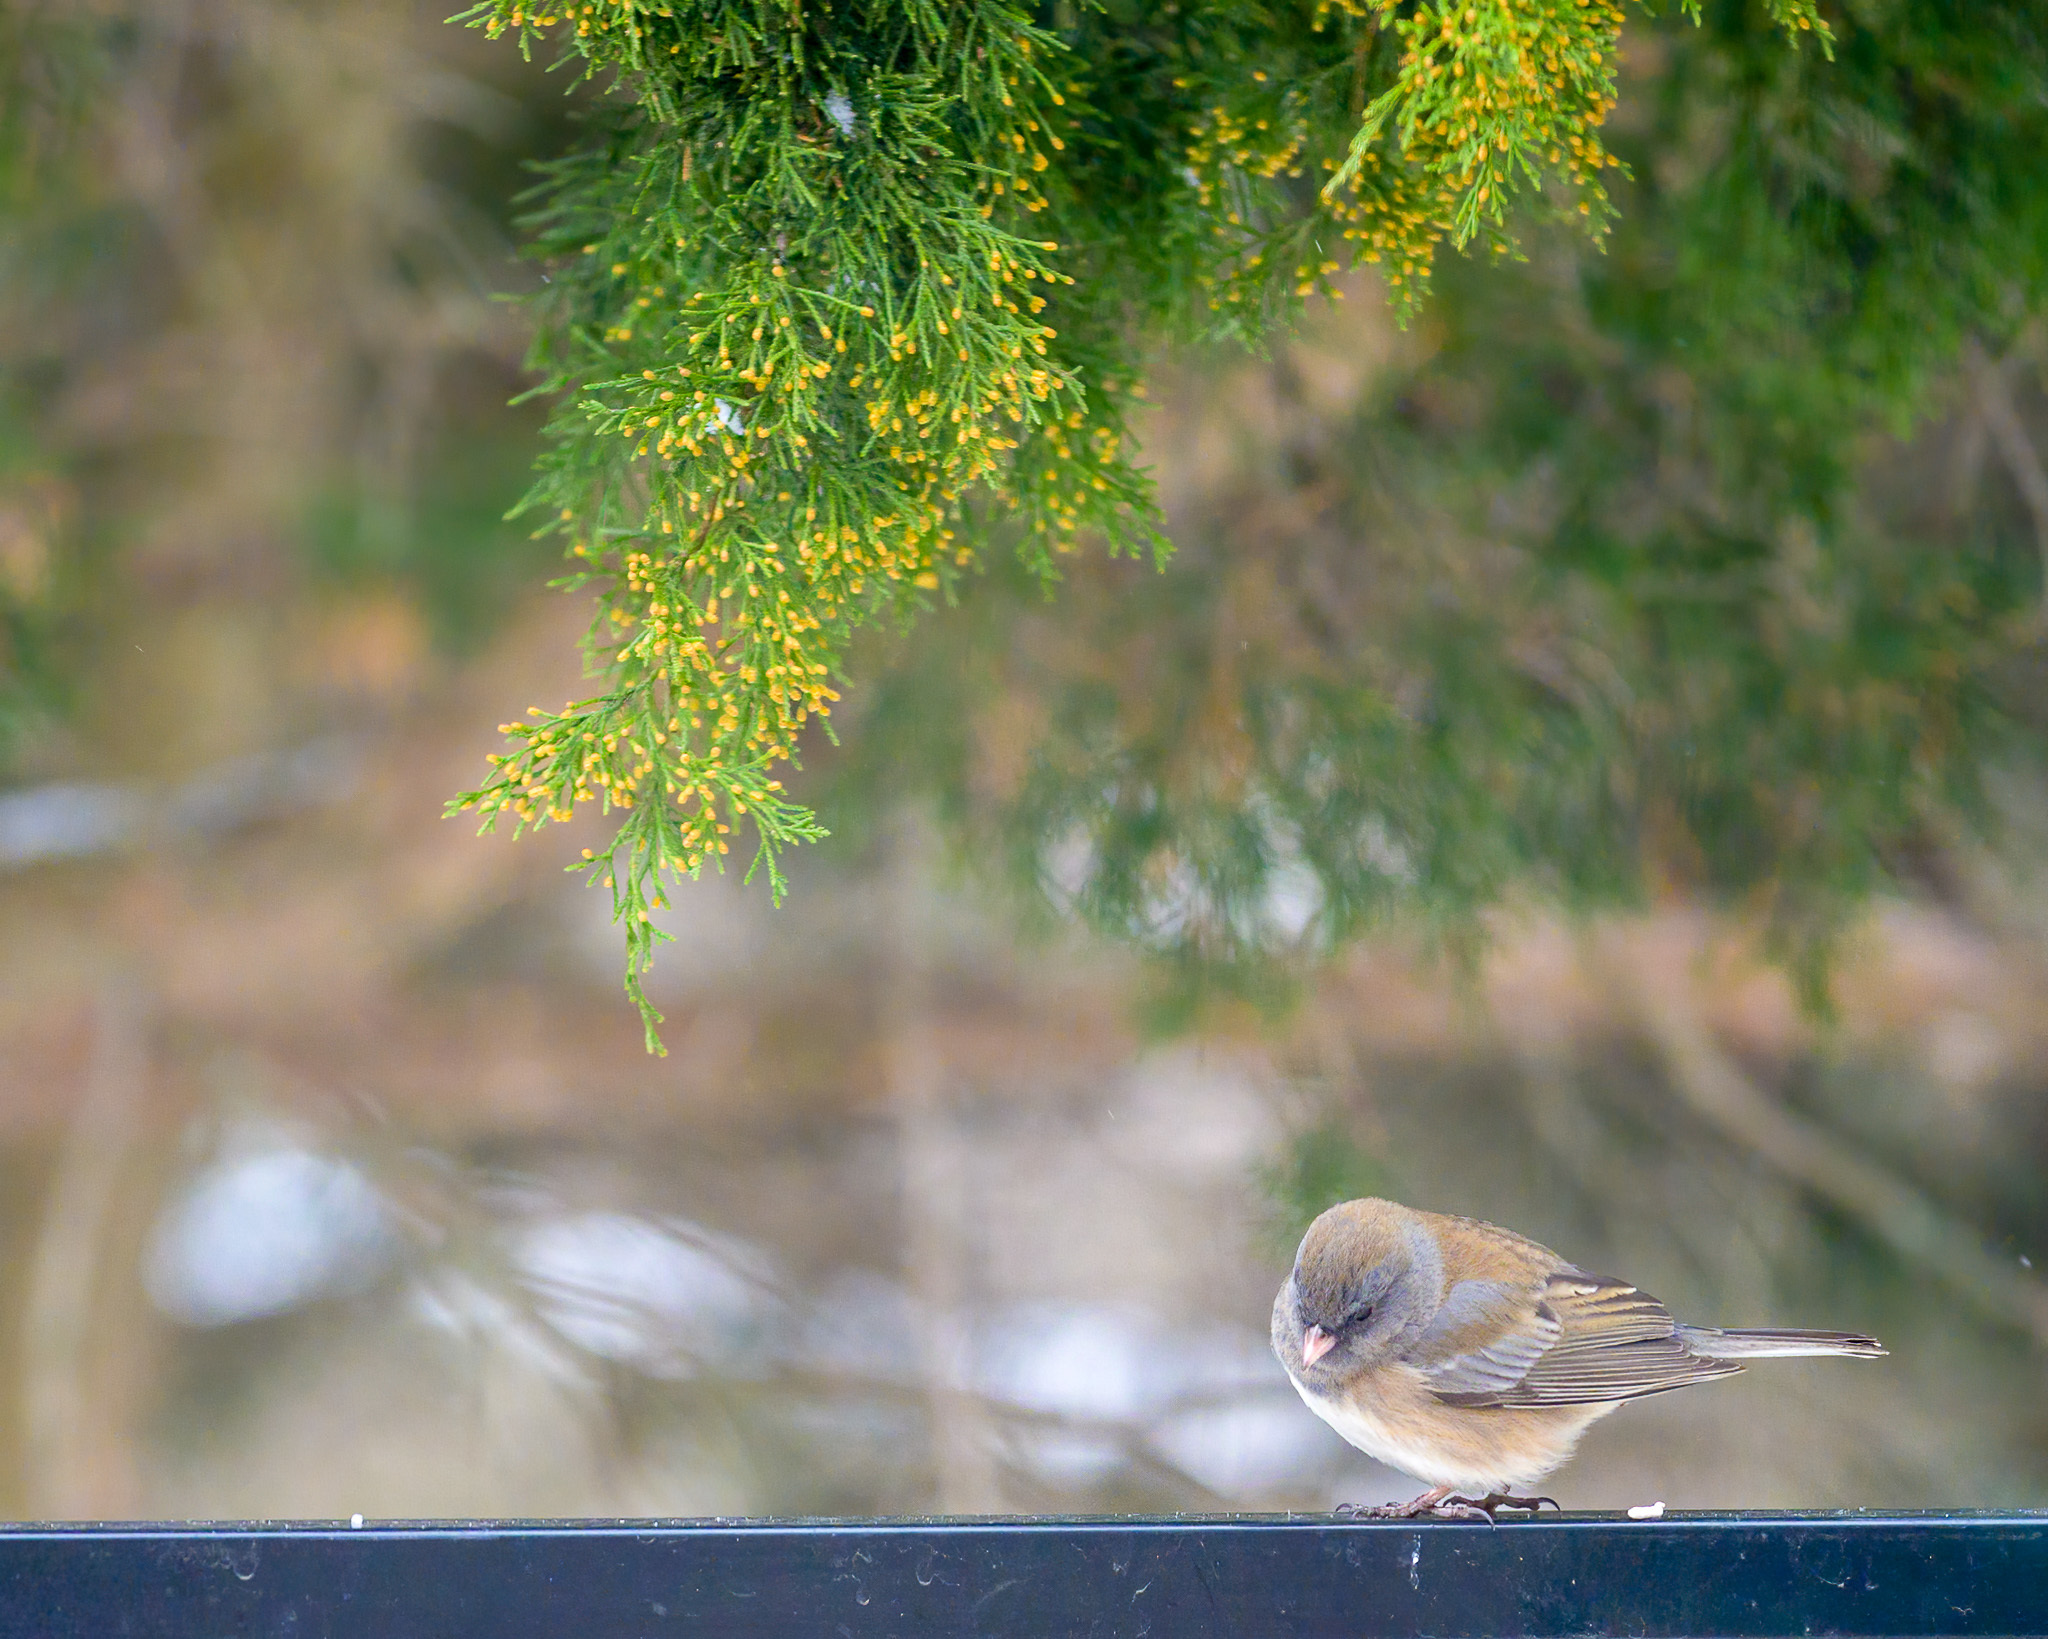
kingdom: Animalia
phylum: Chordata
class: Aves
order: Passeriformes
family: Passerellidae
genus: Junco
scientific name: Junco hyemalis
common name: Dark-eyed junco
